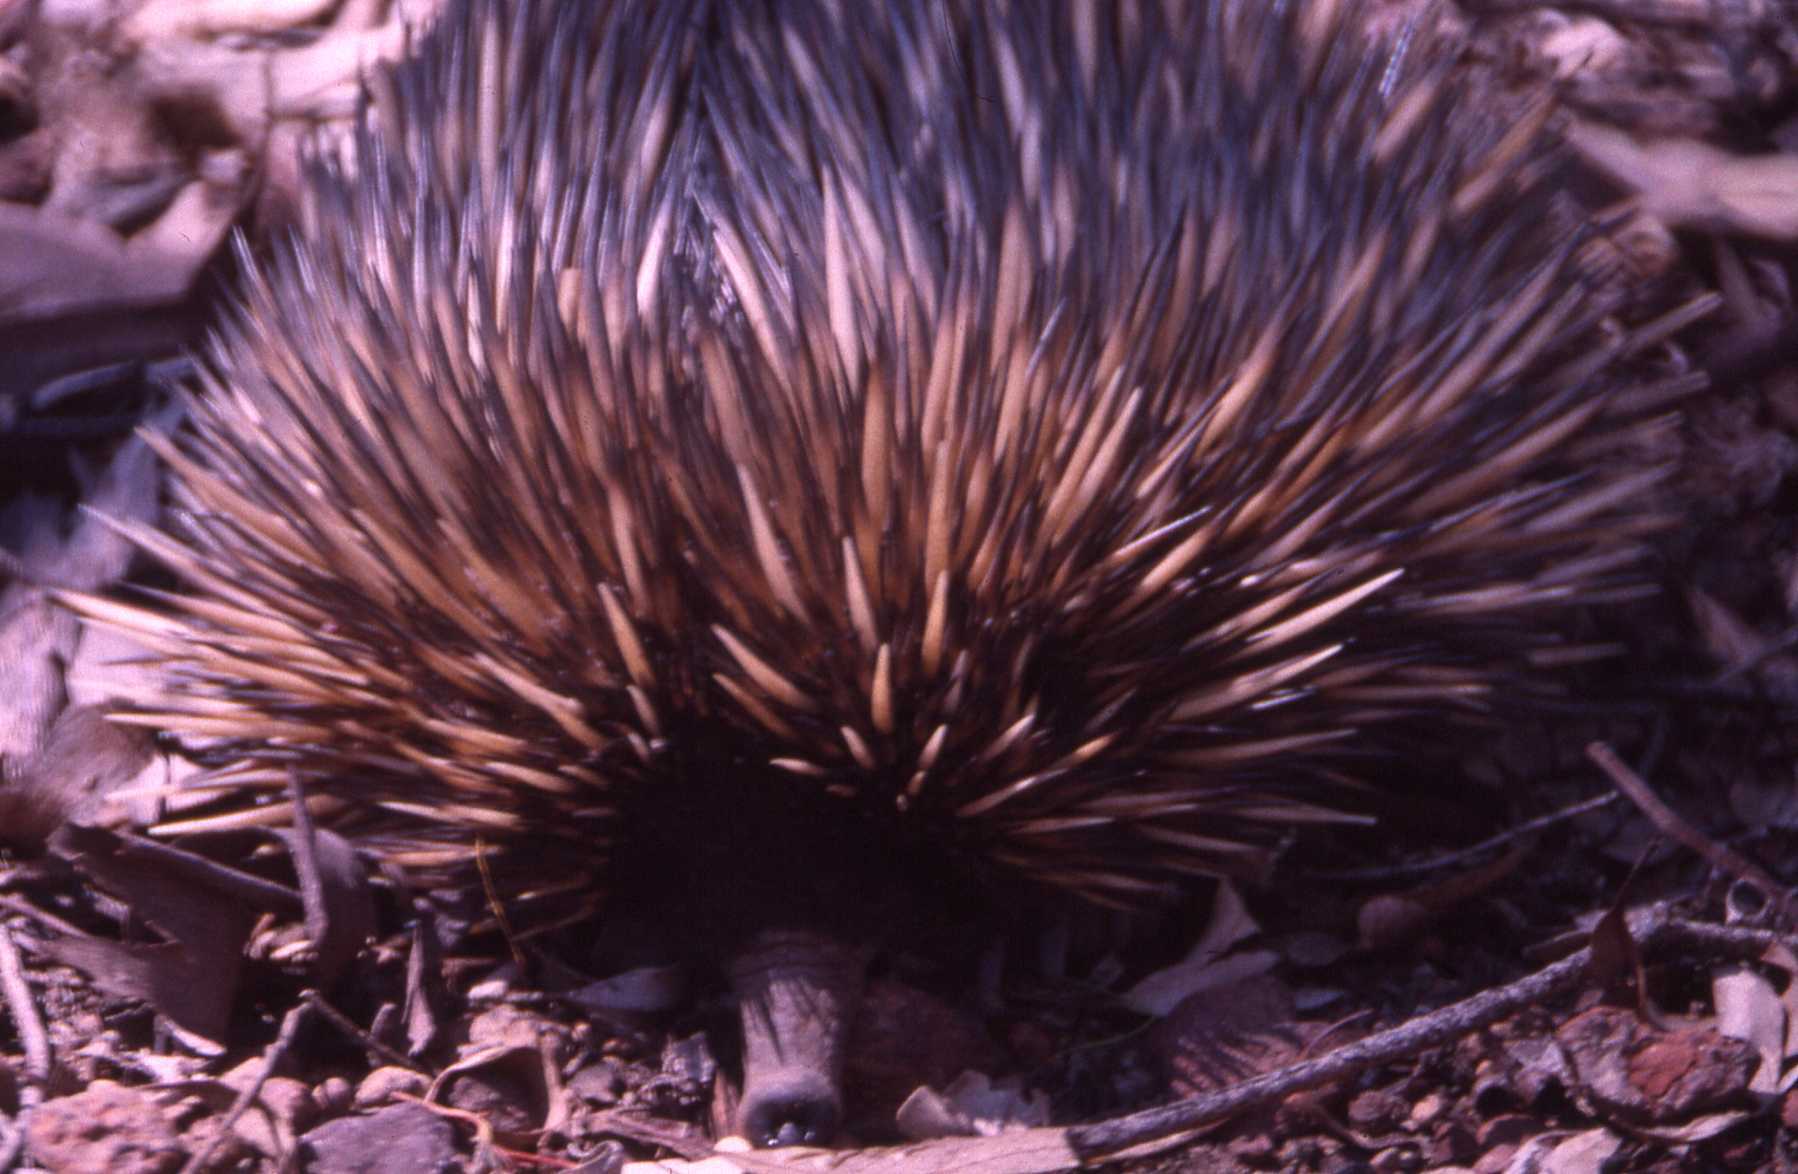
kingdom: Animalia
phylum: Chordata
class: Mammalia
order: Monotremata
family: Tachyglossidae
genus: Tachyglossus
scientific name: Tachyglossus aculeatus
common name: Short-beaked echidna
